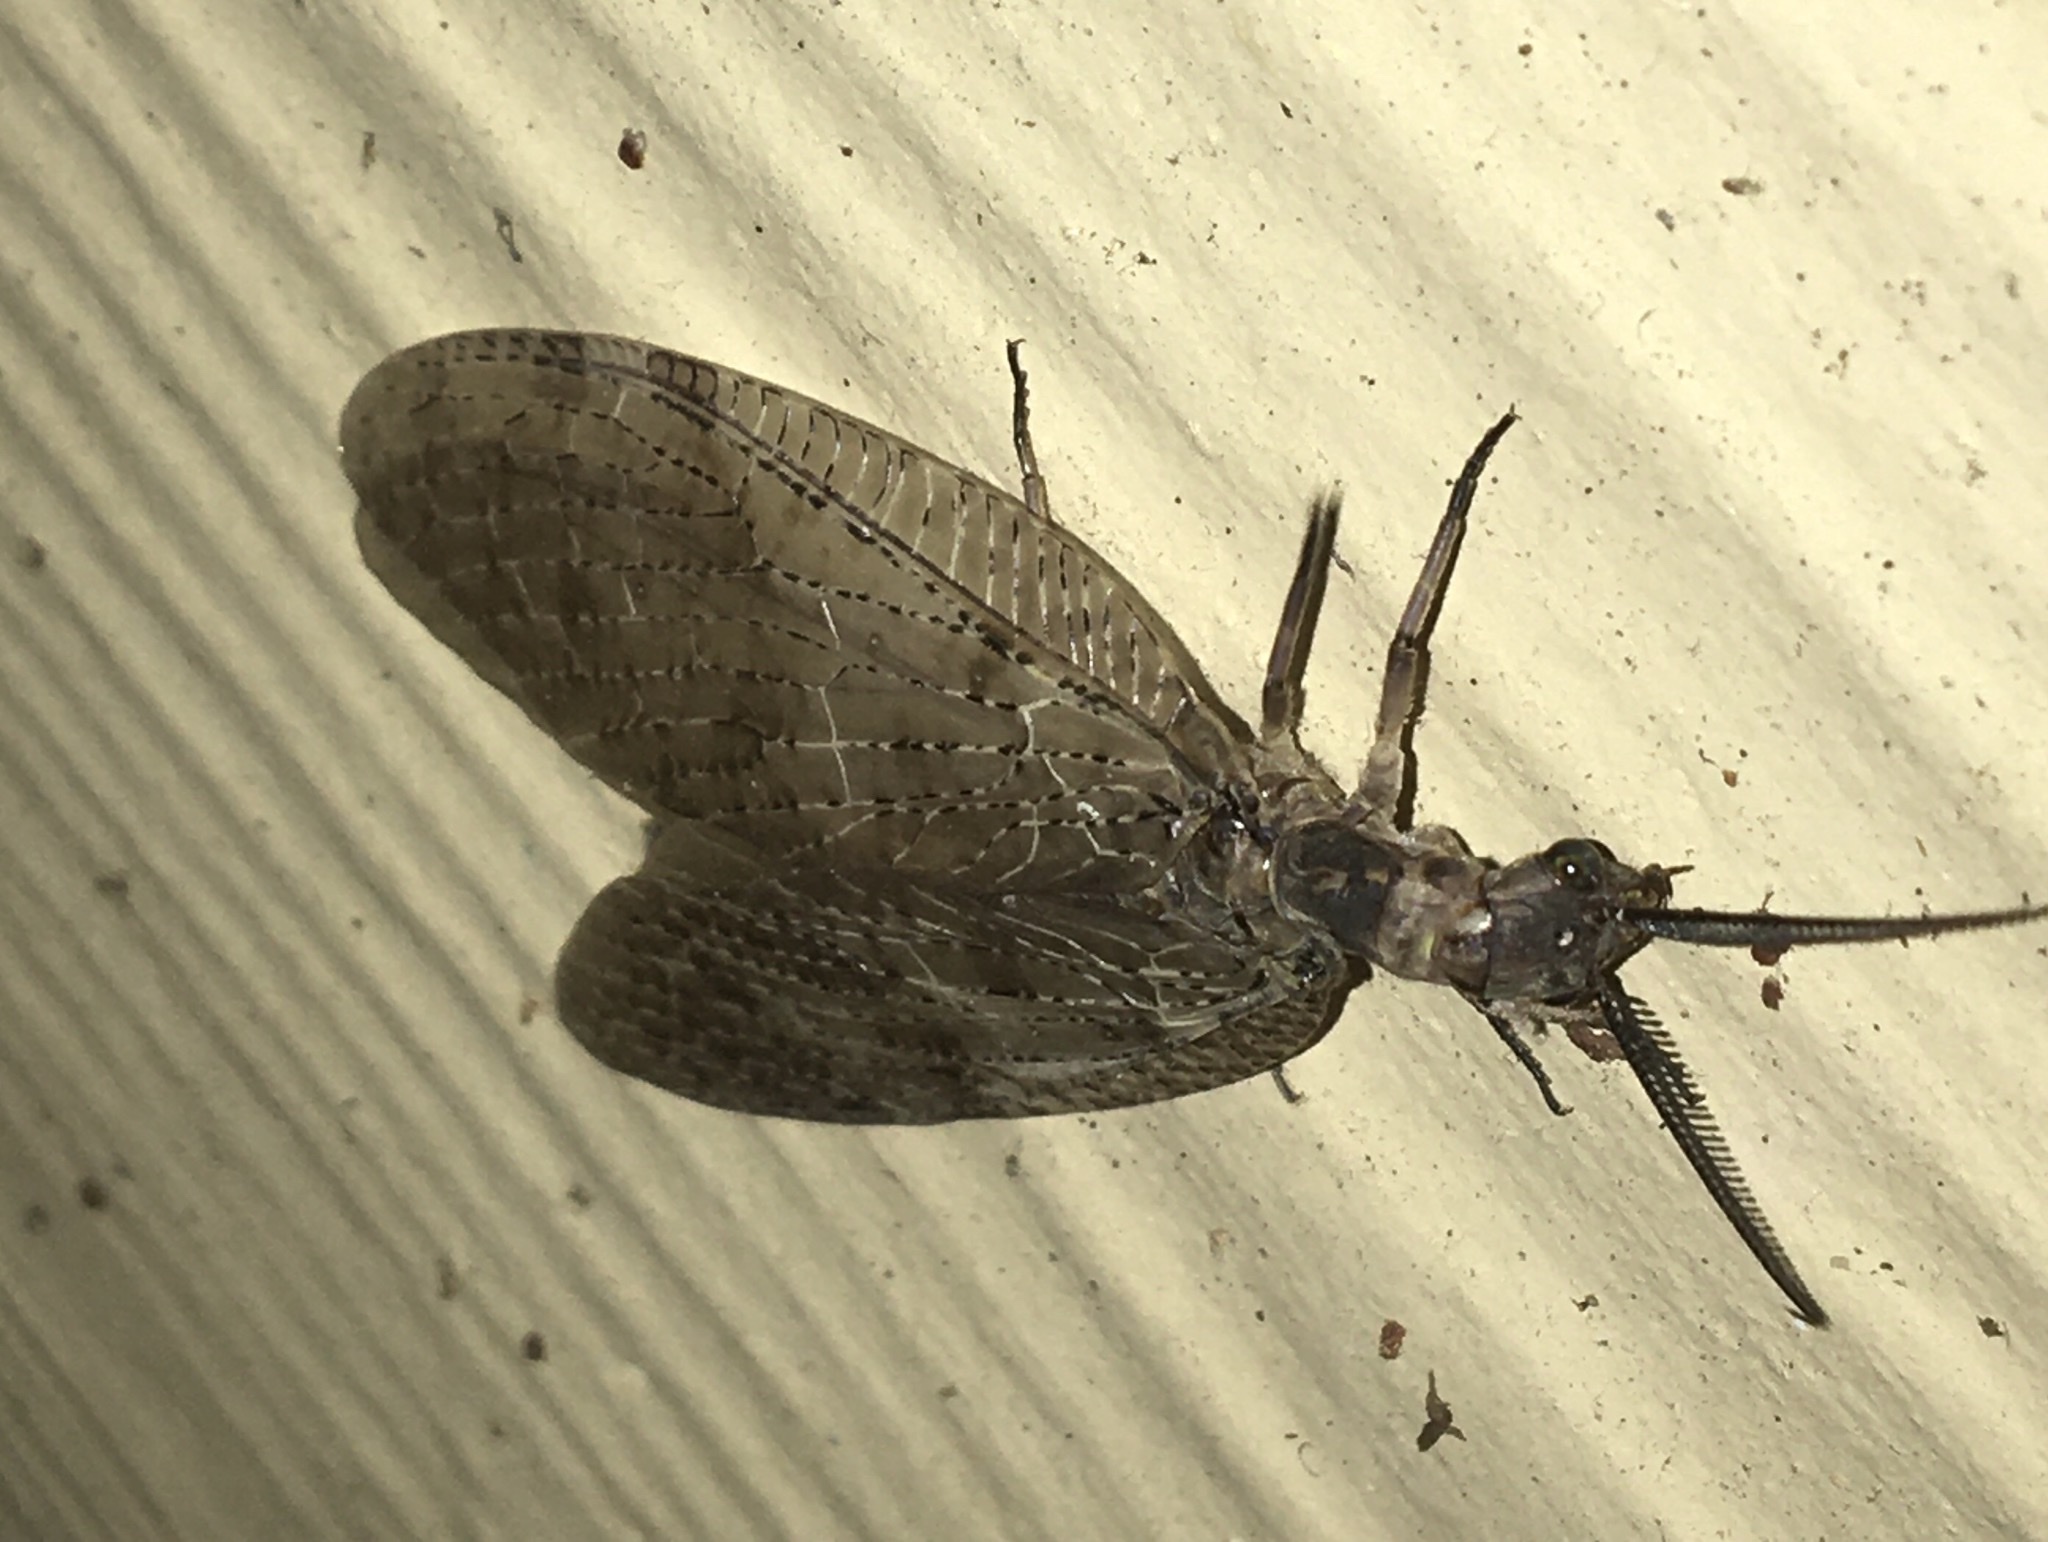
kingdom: Animalia
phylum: Arthropoda
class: Insecta
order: Megaloptera
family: Corydalidae
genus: Chauliodes
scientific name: Chauliodes pectinicornis
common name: Summer fishfly
